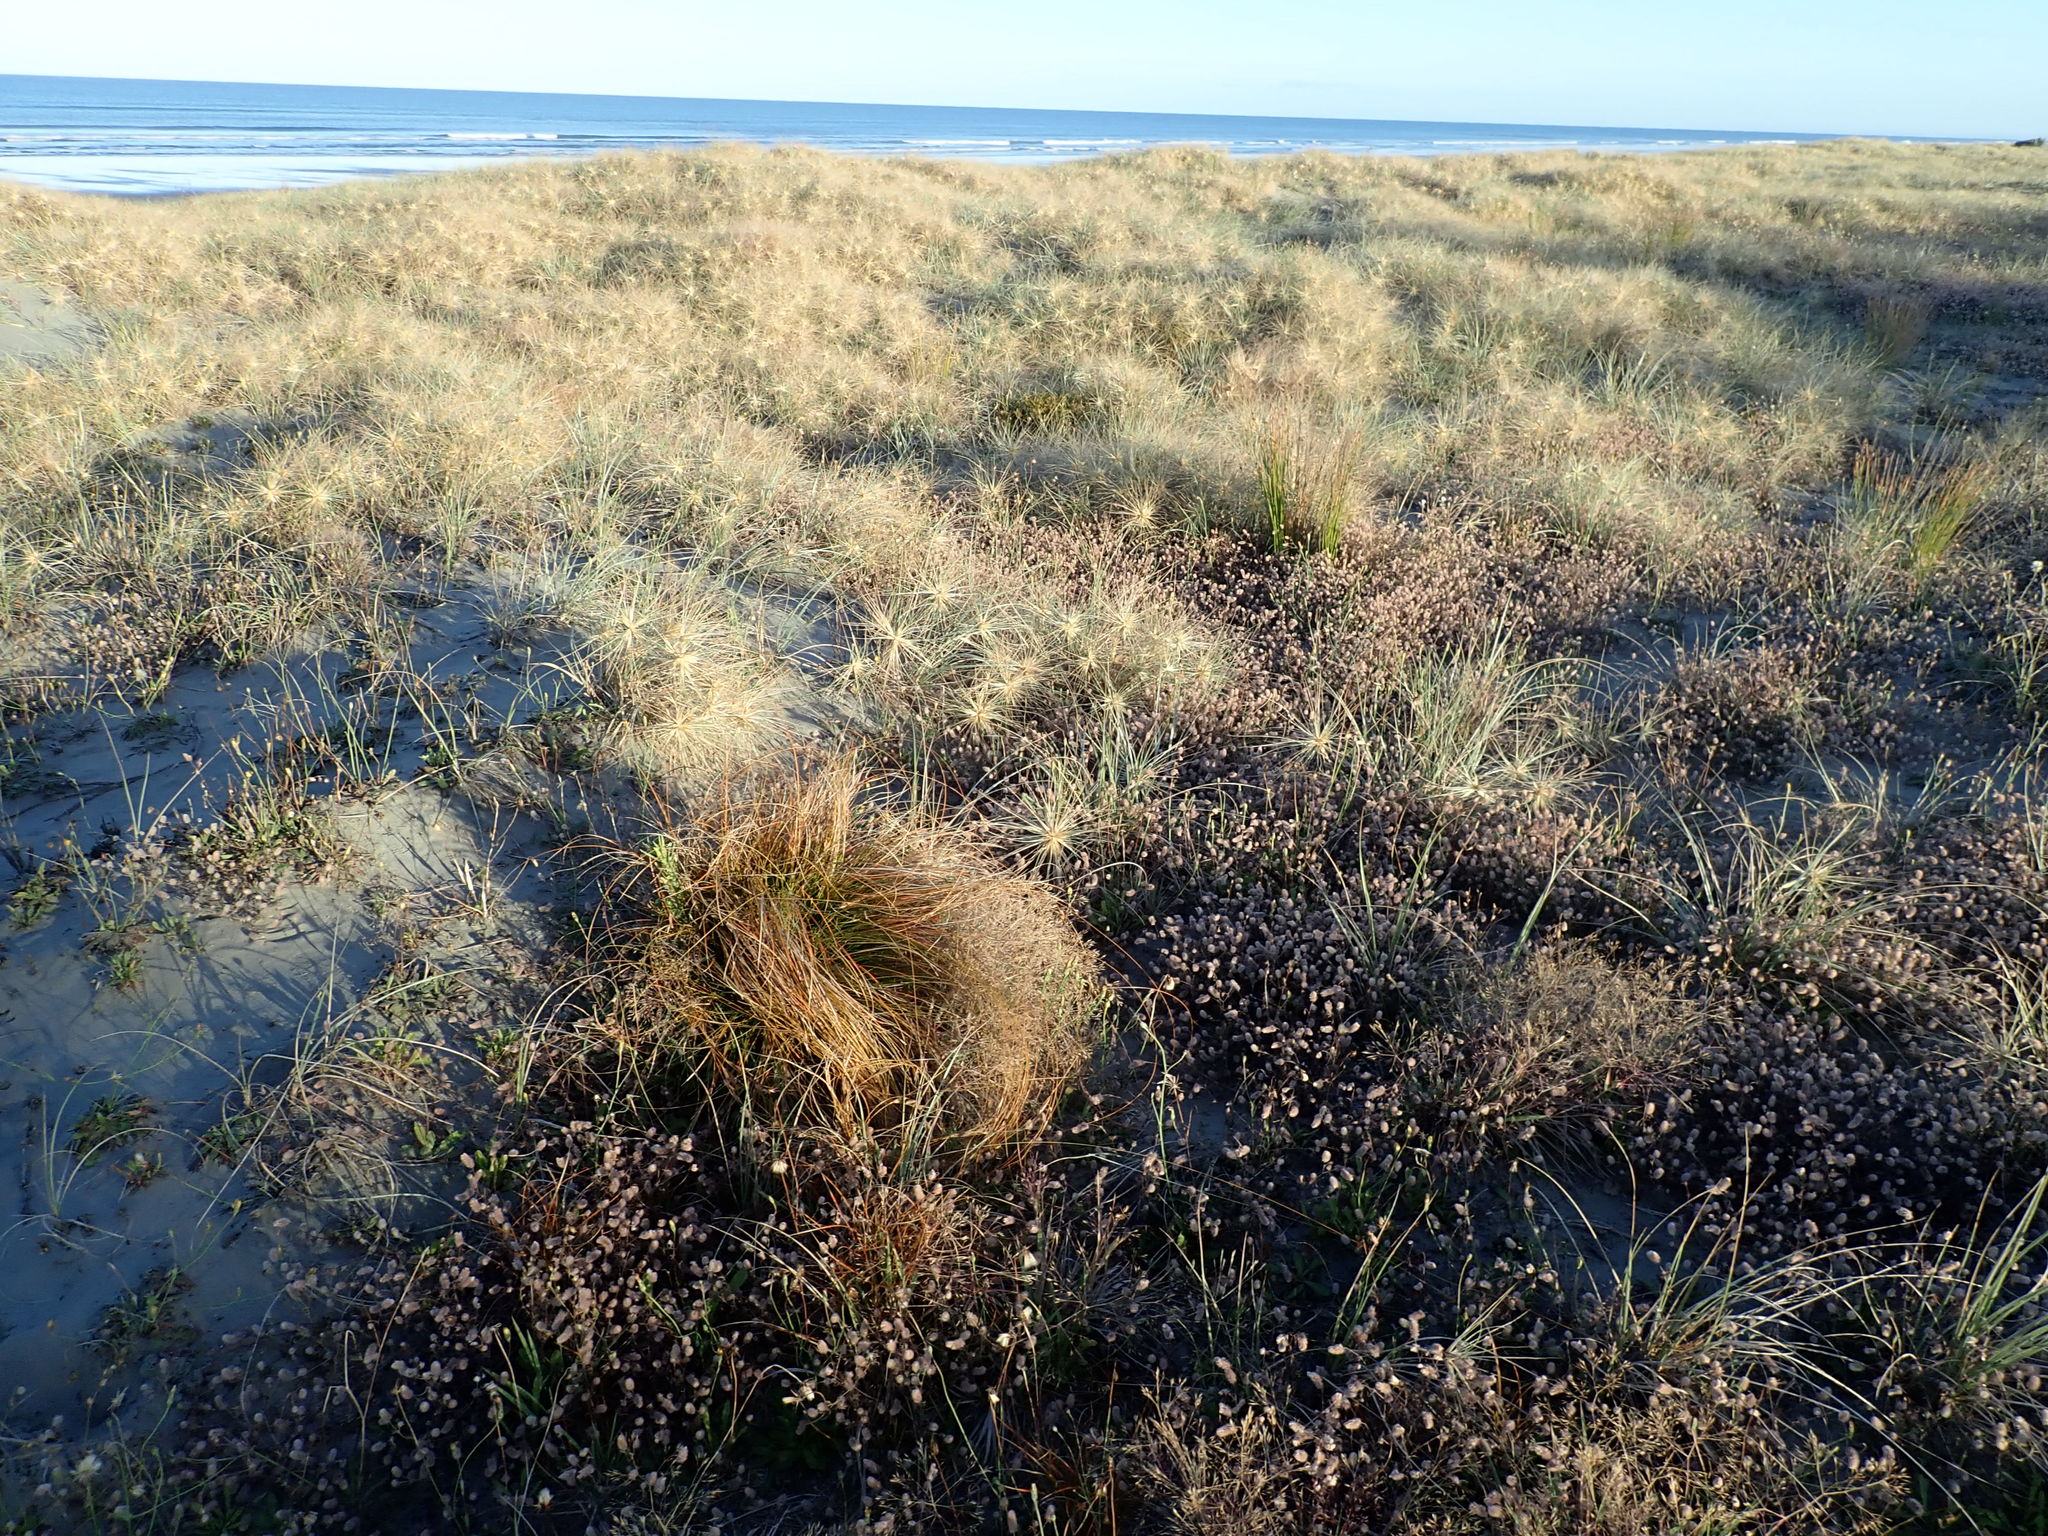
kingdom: Plantae
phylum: Tracheophyta
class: Liliopsida
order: Poales
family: Cyperaceae
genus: Carex
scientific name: Carex testacea
